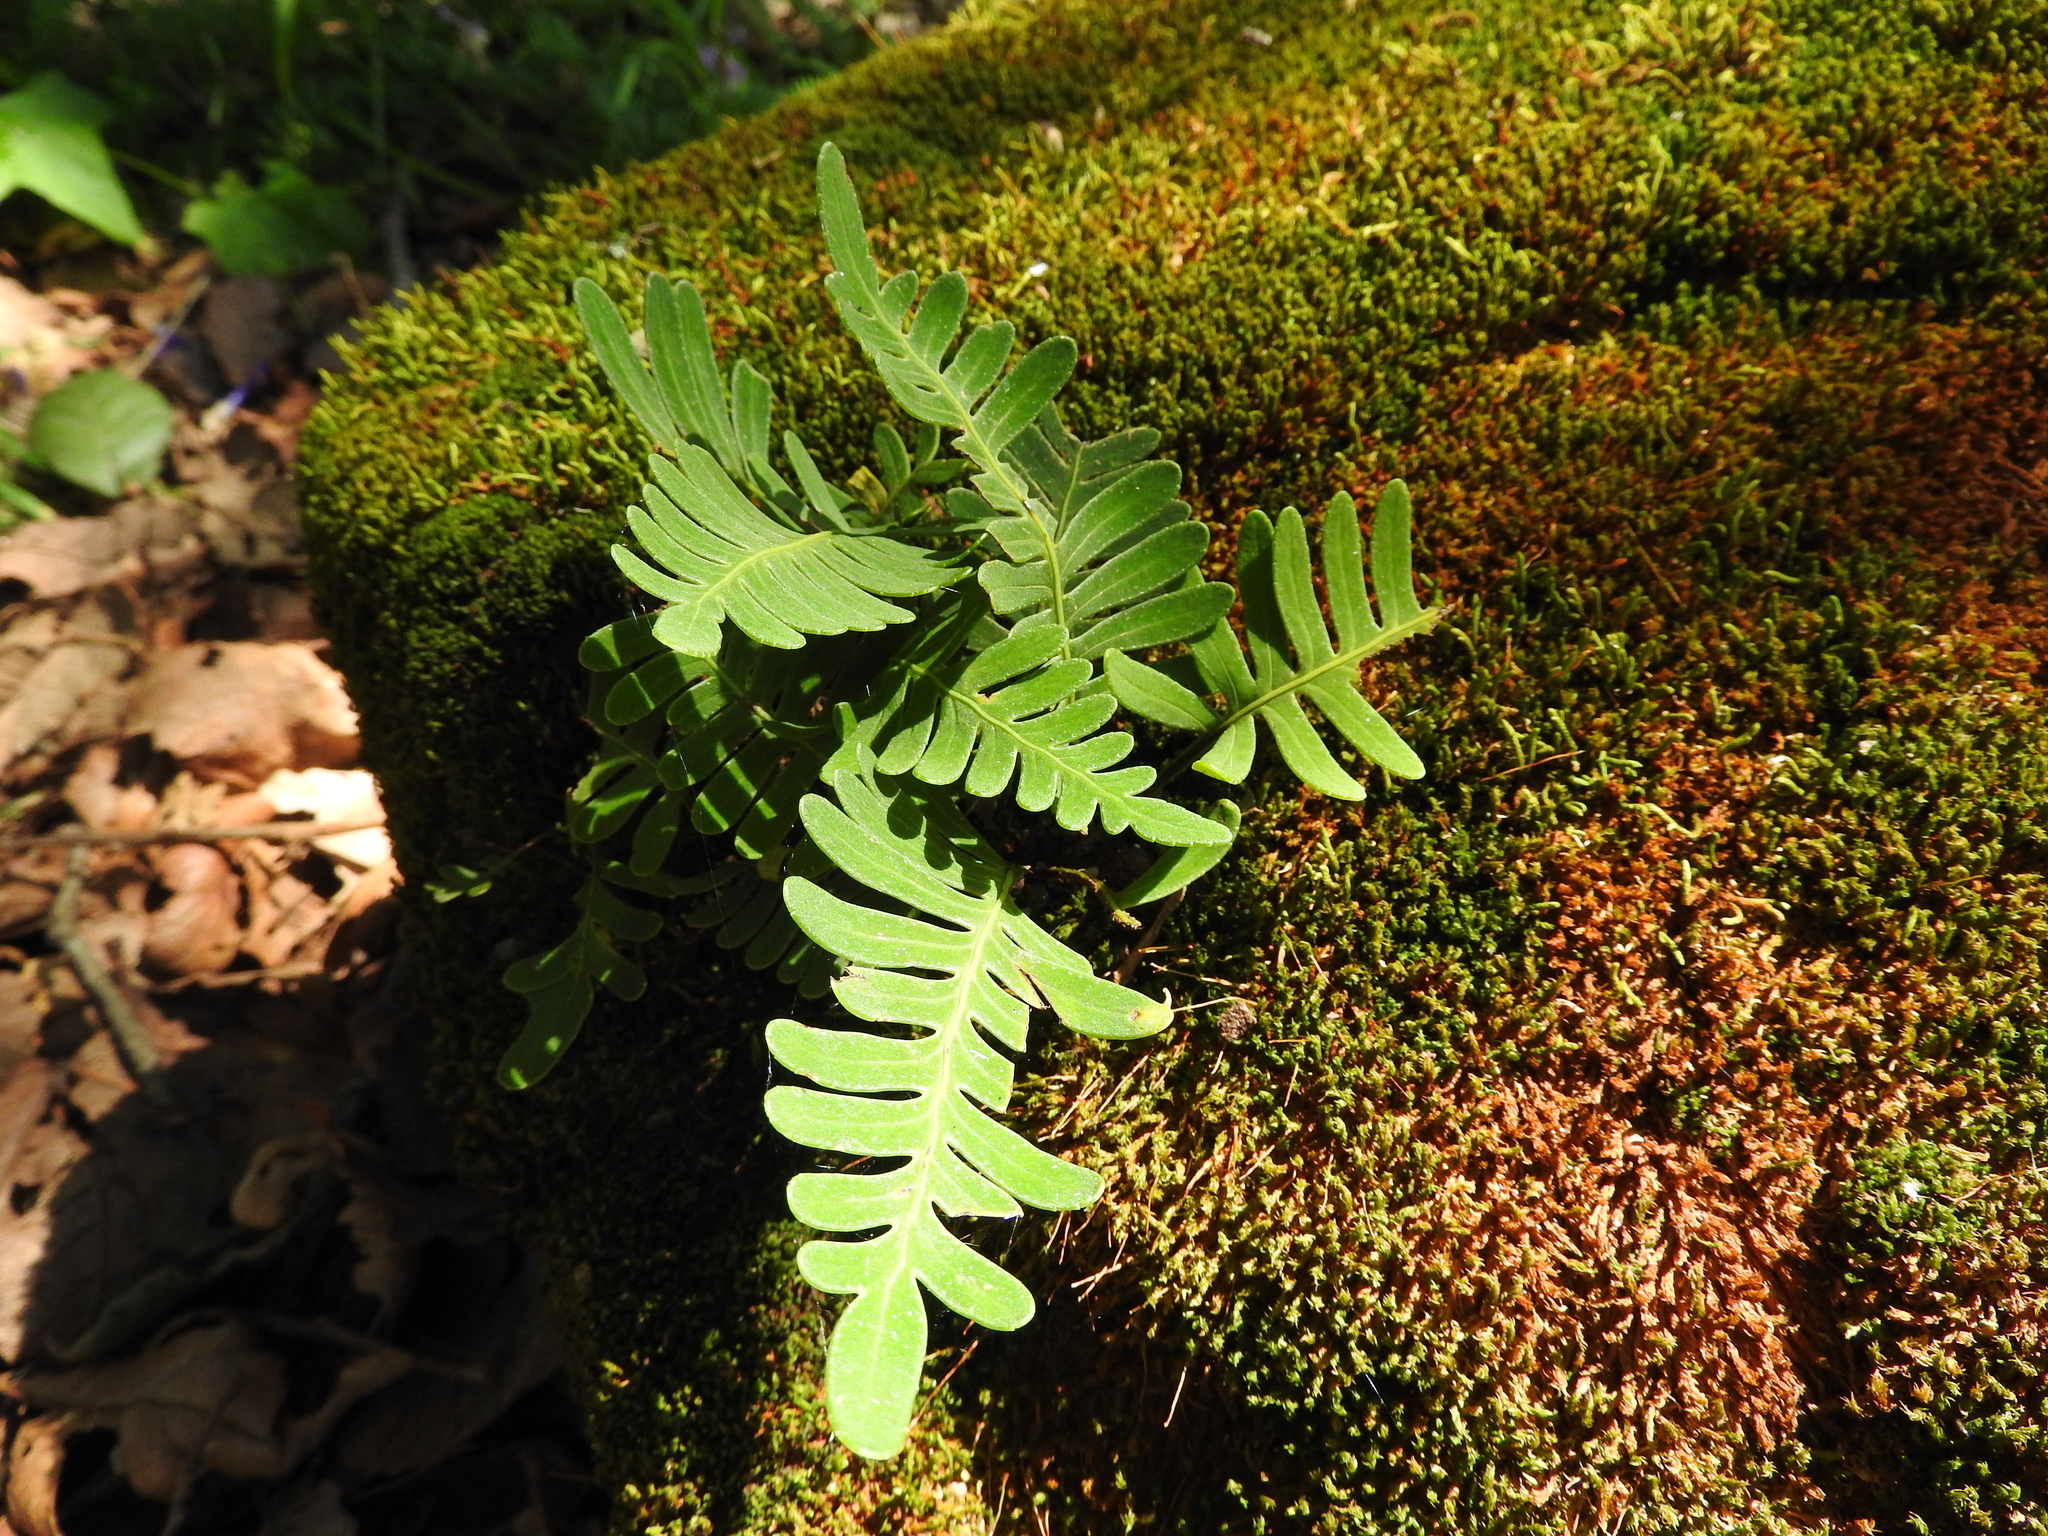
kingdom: Plantae
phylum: Tracheophyta
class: Polypodiopsida
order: Polypodiales
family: Polypodiaceae
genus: Pleopeltis
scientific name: Pleopeltis polypodioides
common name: Resurrection fern
